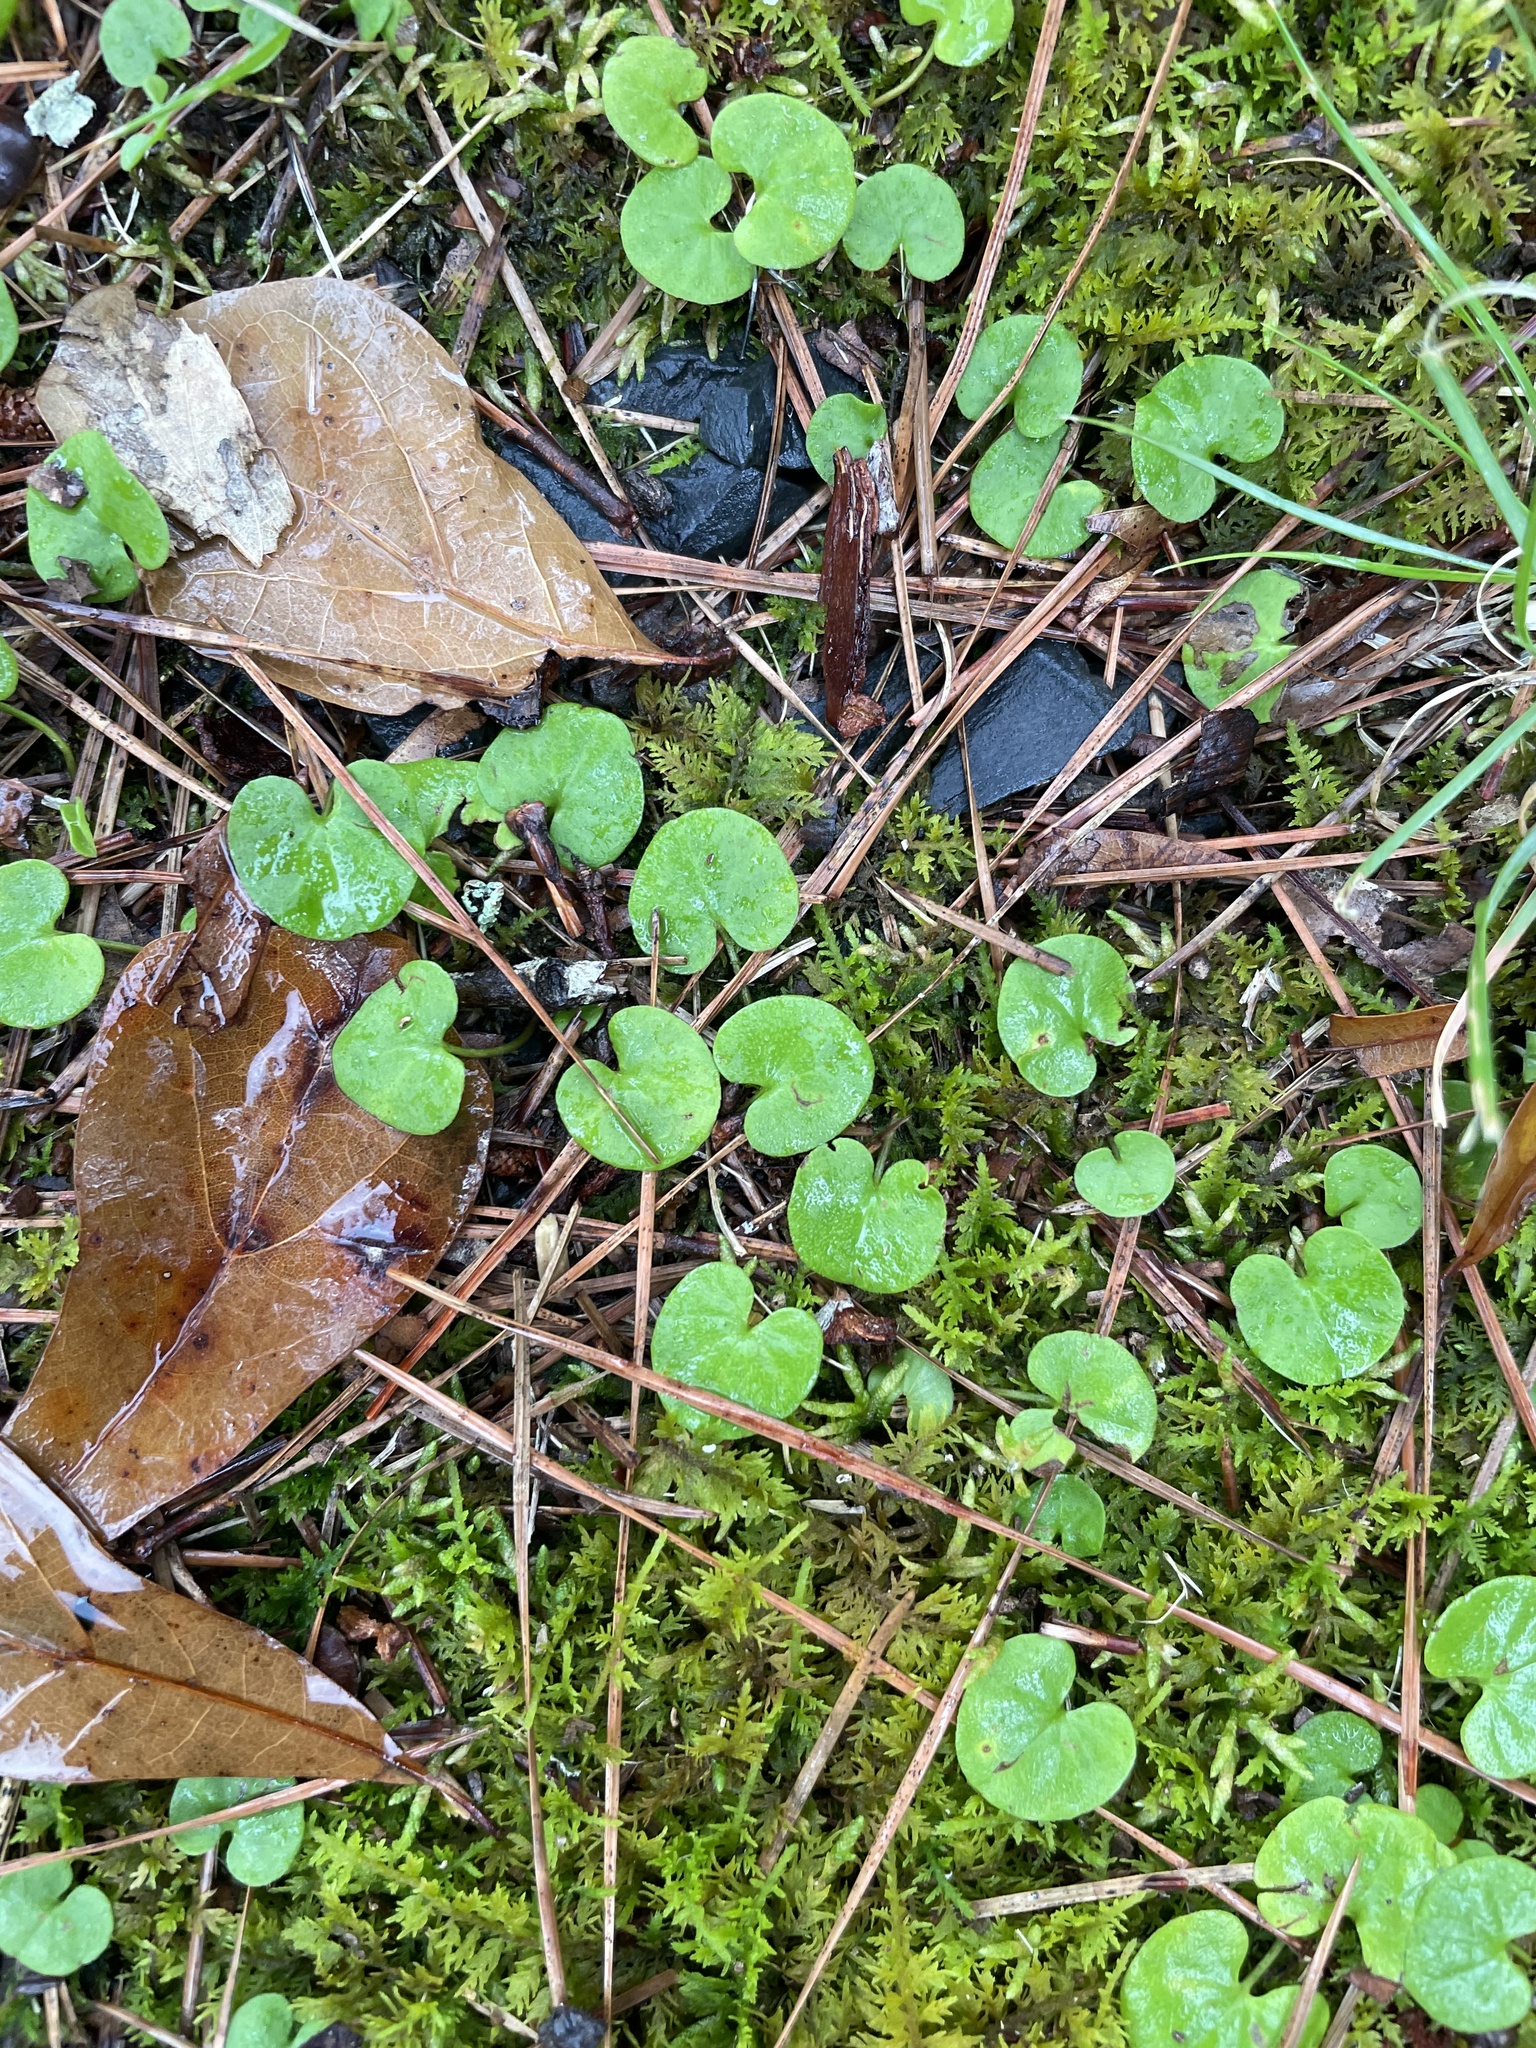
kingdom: Plantae
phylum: Tracheophyta
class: Magnoliopsida
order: Solanales
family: Convolvulaceae
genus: Dichondra
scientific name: Dichondra carolinensis
